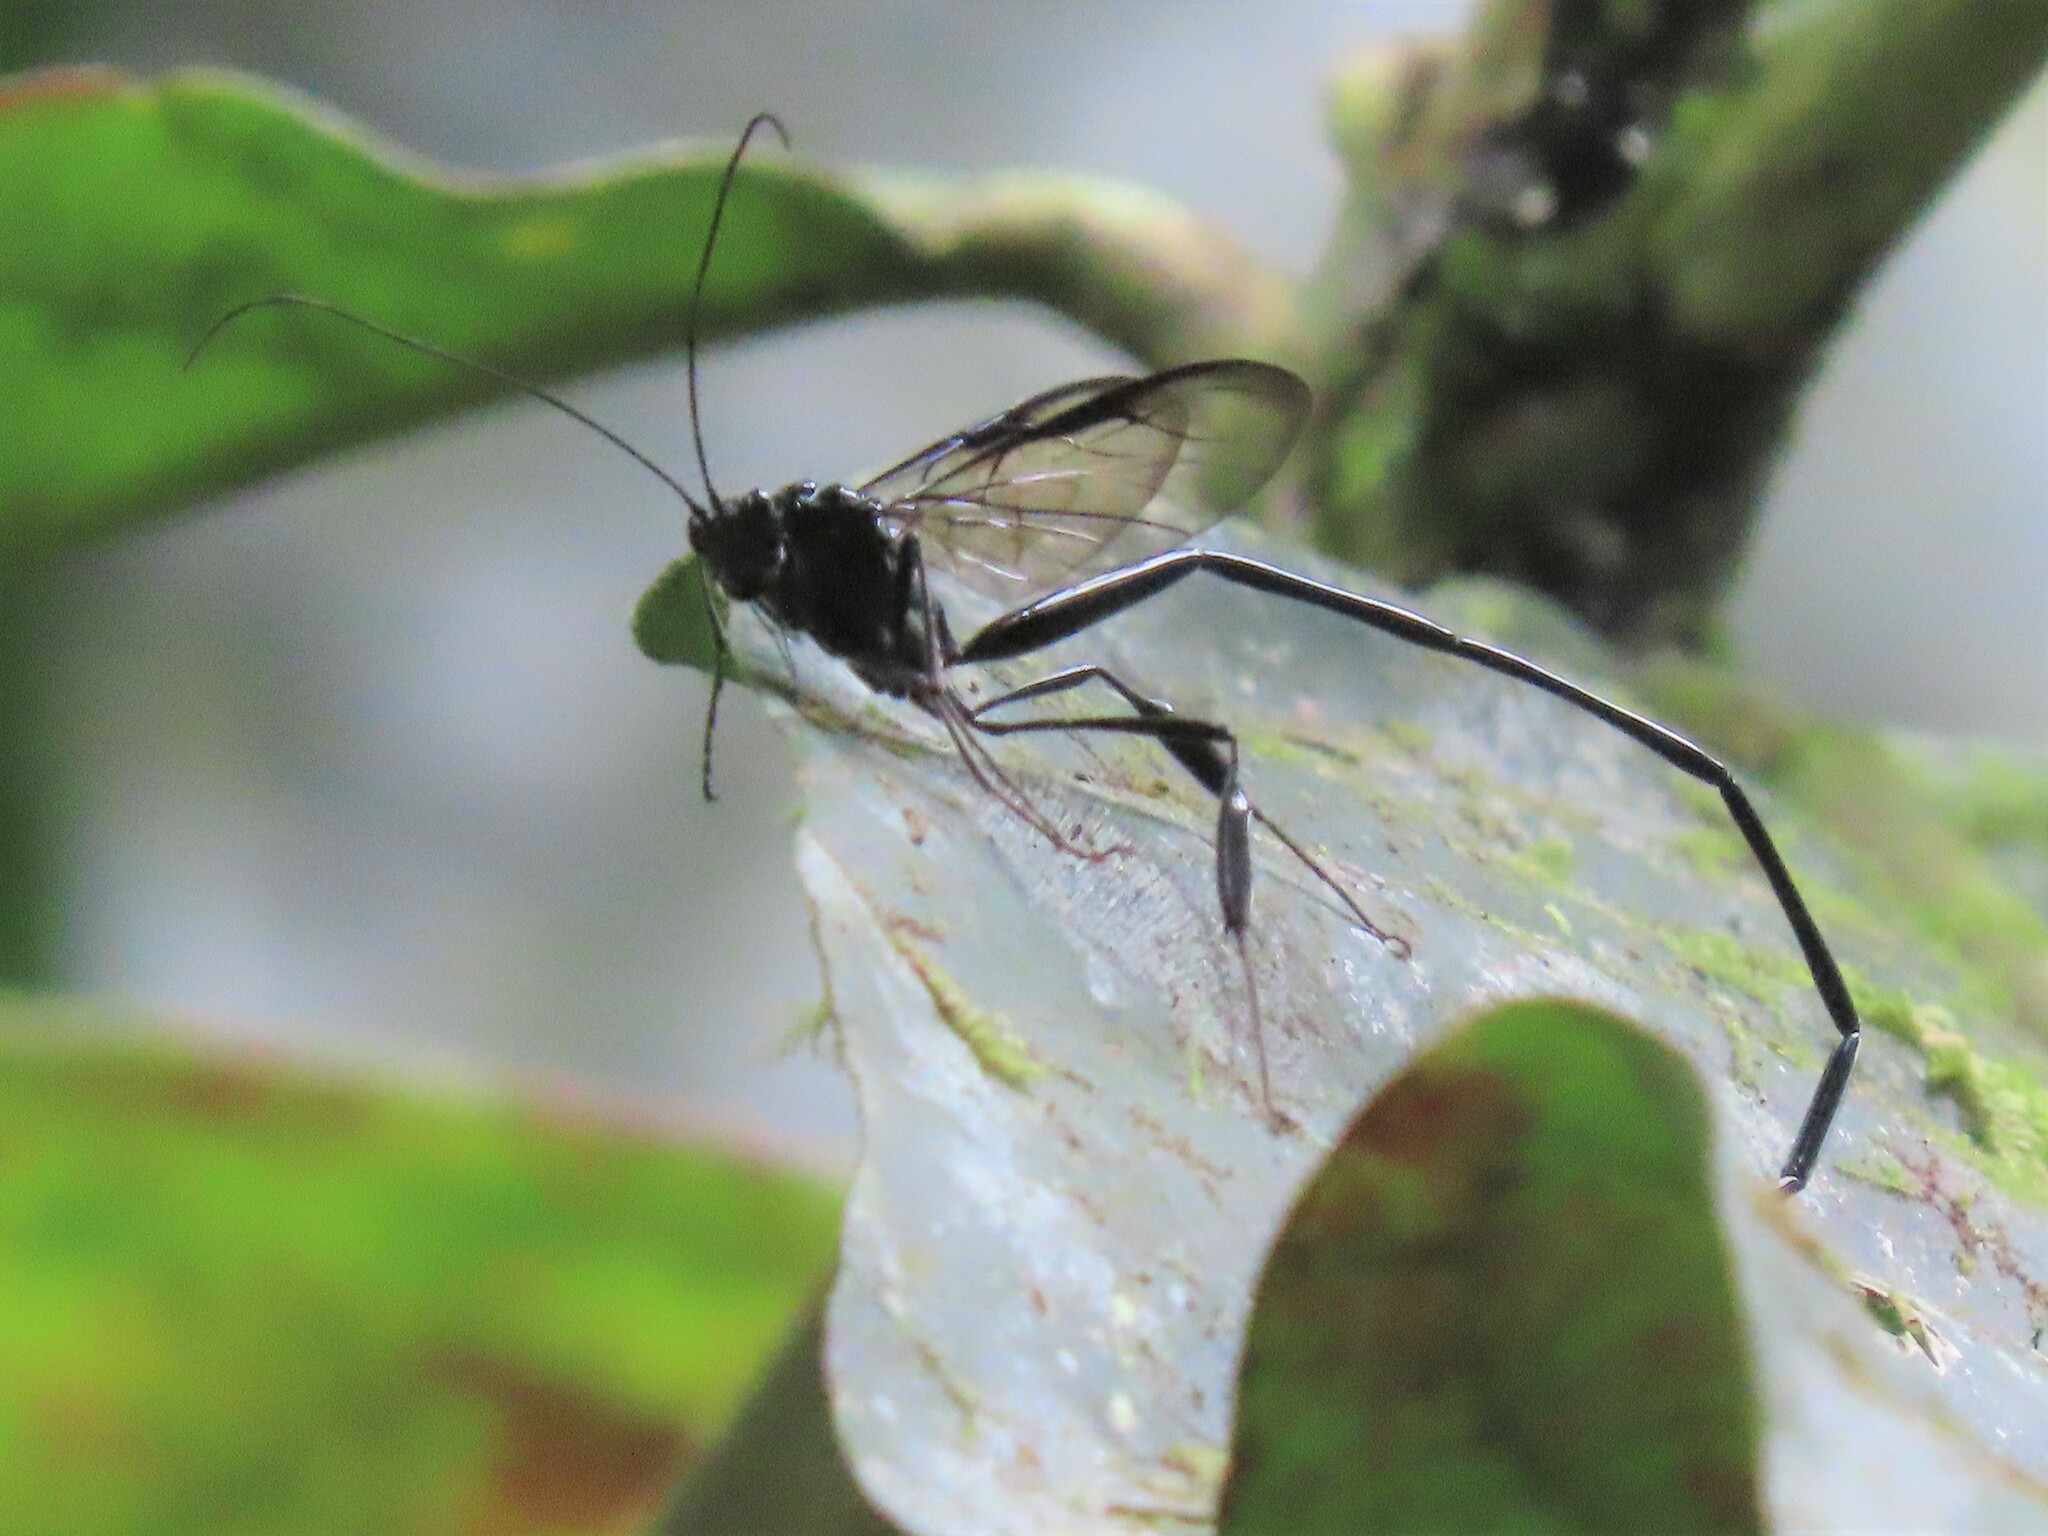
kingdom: Animalia
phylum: Arthropoda
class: Insecta
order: Hymenoptera
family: Pelecinidae
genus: Pelecinus
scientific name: Pelecinus polyturator
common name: American pelecinid wasp
